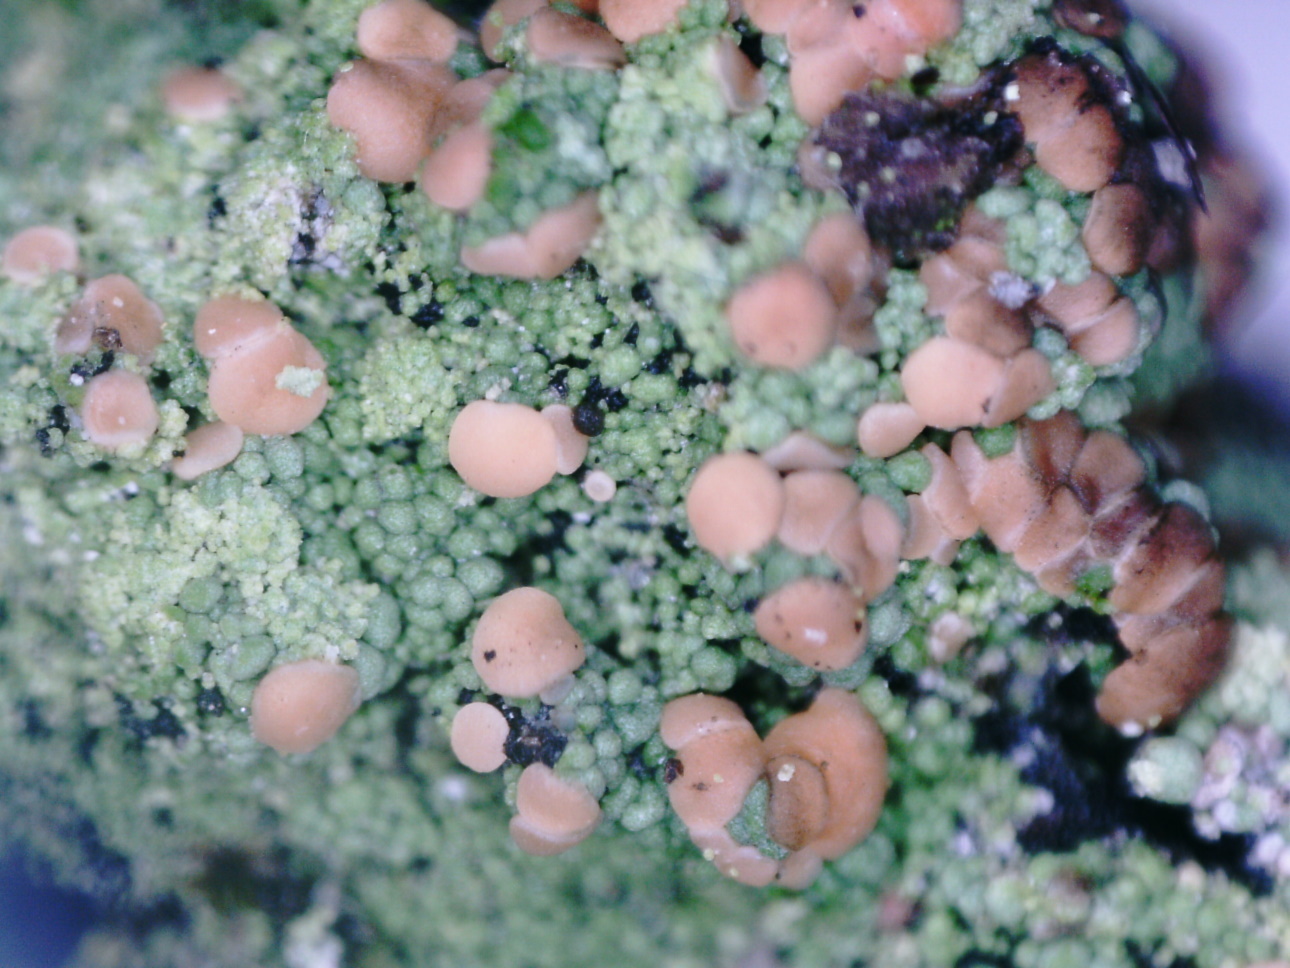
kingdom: Fungi
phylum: Ascomycota
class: Lecanoromycetes
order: Baeomycetales
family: Trapeliaceae
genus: Trapeliopsis
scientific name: Trapeliopsis granulosa
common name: Granular mottled-disk lichen
